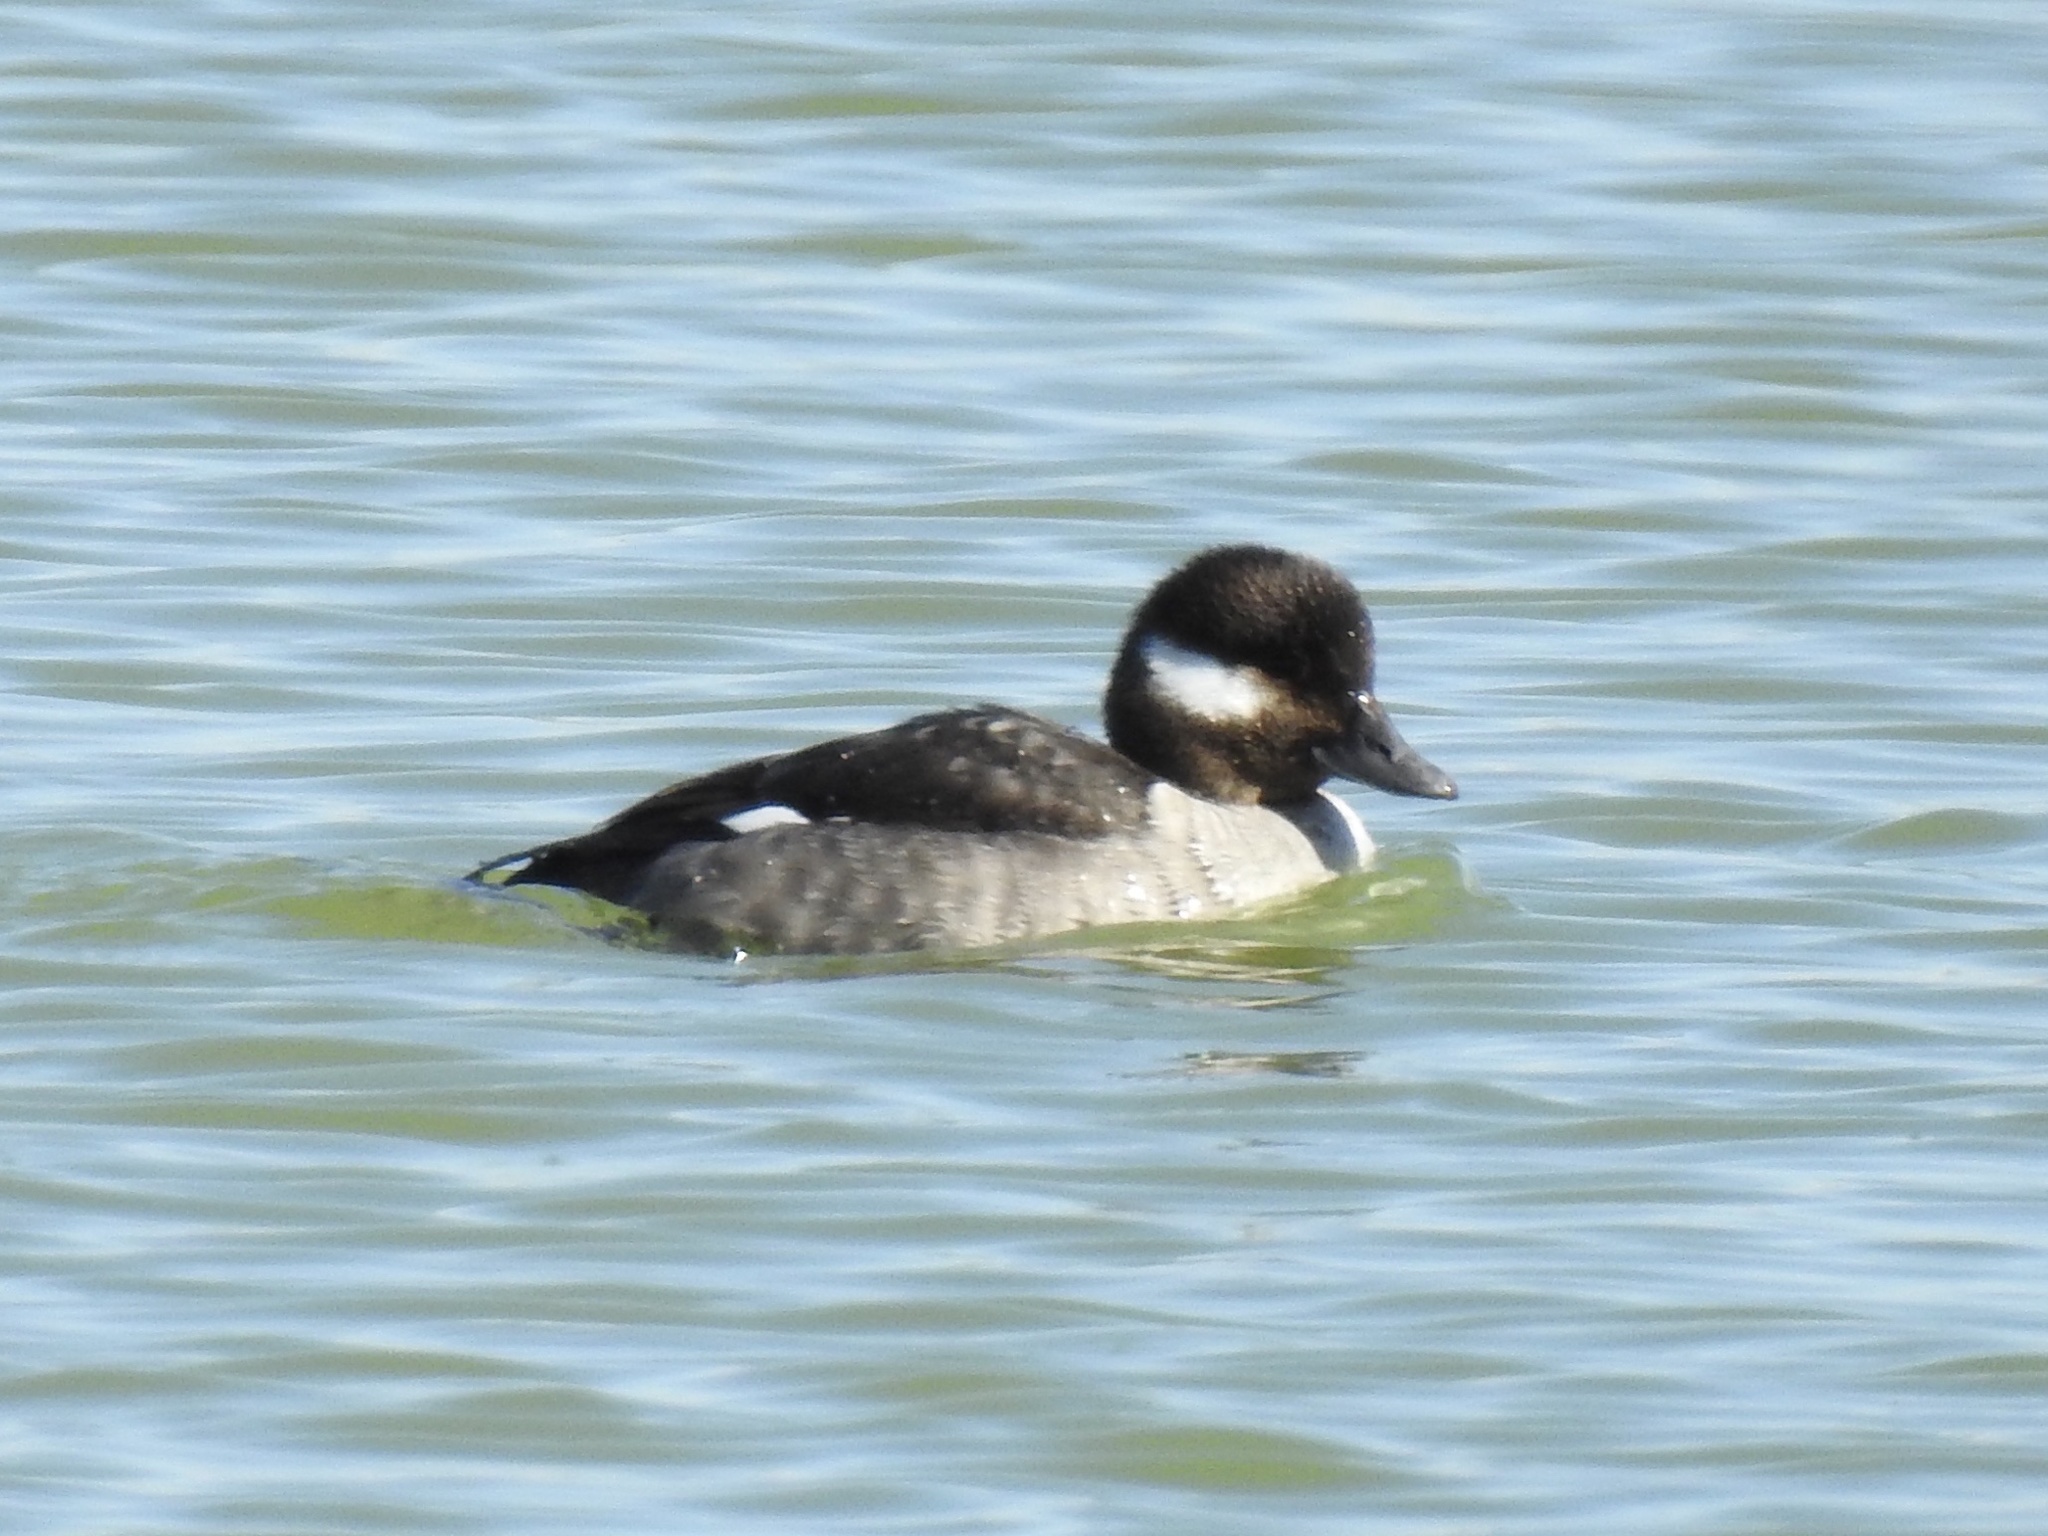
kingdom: Animalia
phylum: Chordata
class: Aves
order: Anseriformes
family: Anatidae
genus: Bucephala
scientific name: Bucephala albeola
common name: Bufflehead
